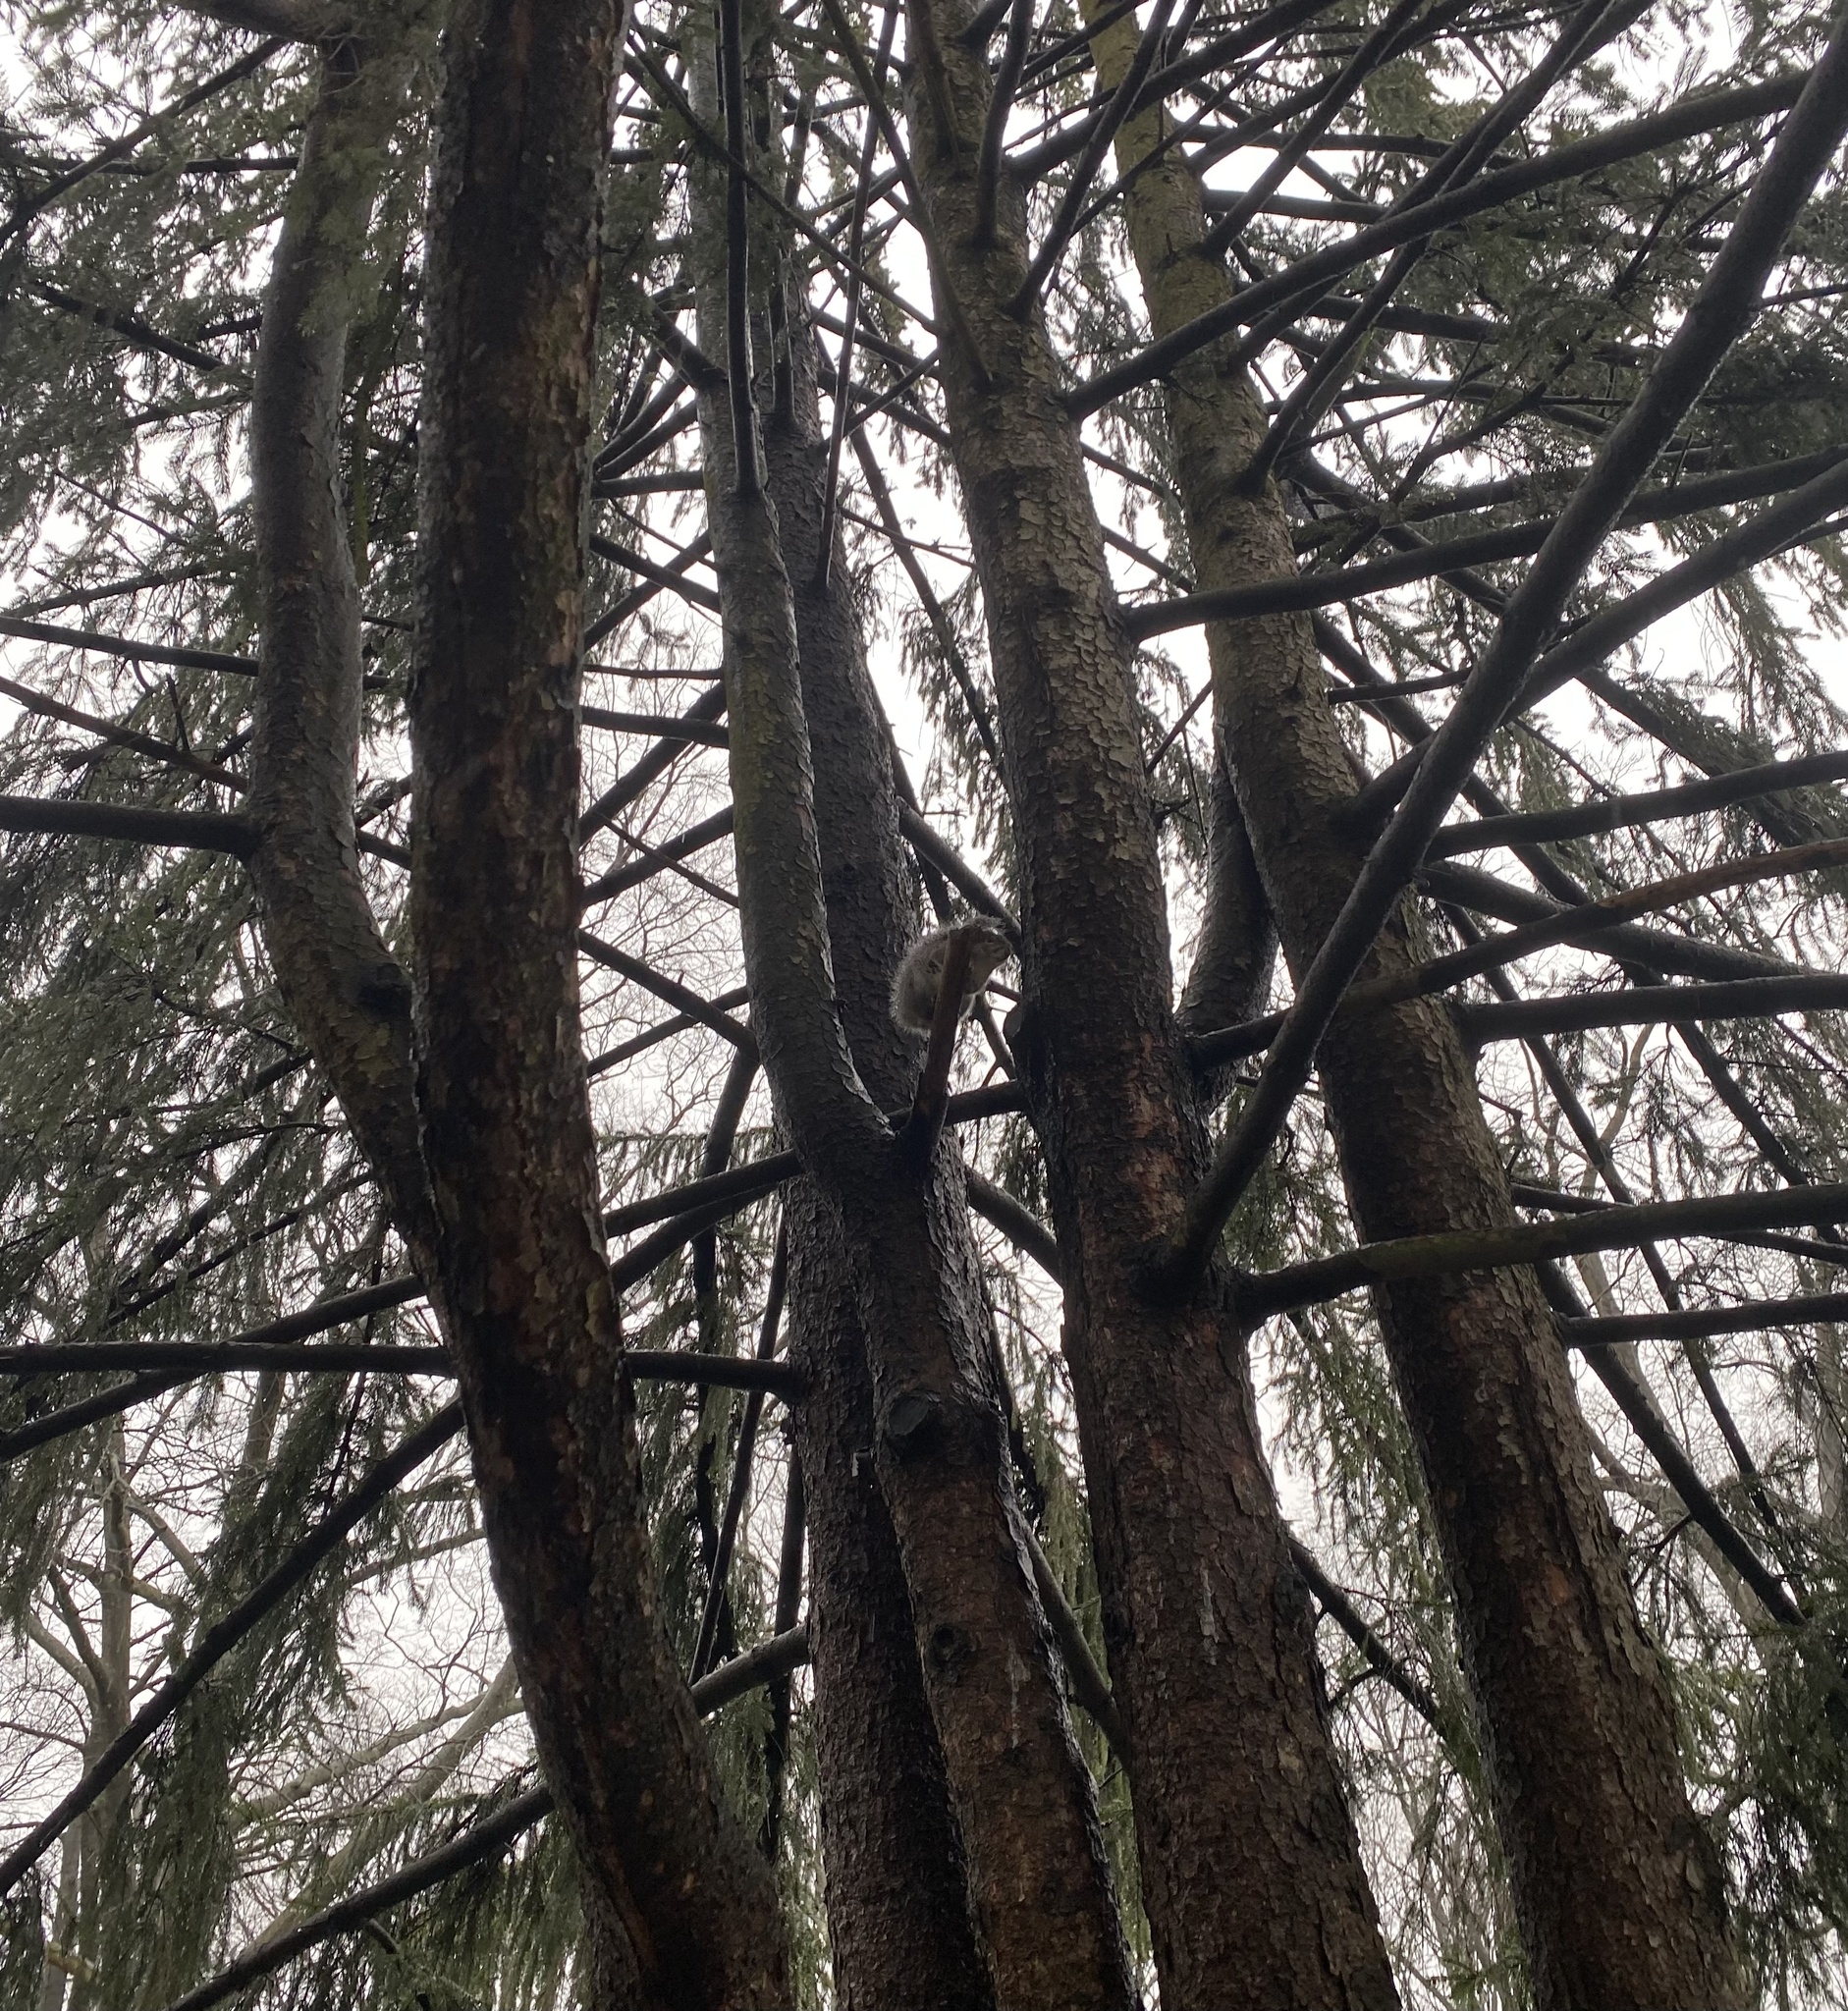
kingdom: Animalia
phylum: Chordata
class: Mammalia
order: Rodentia
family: Sciuridae
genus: Sciurus
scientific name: Sciurus carolinensis
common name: Eastern gray squirrel
